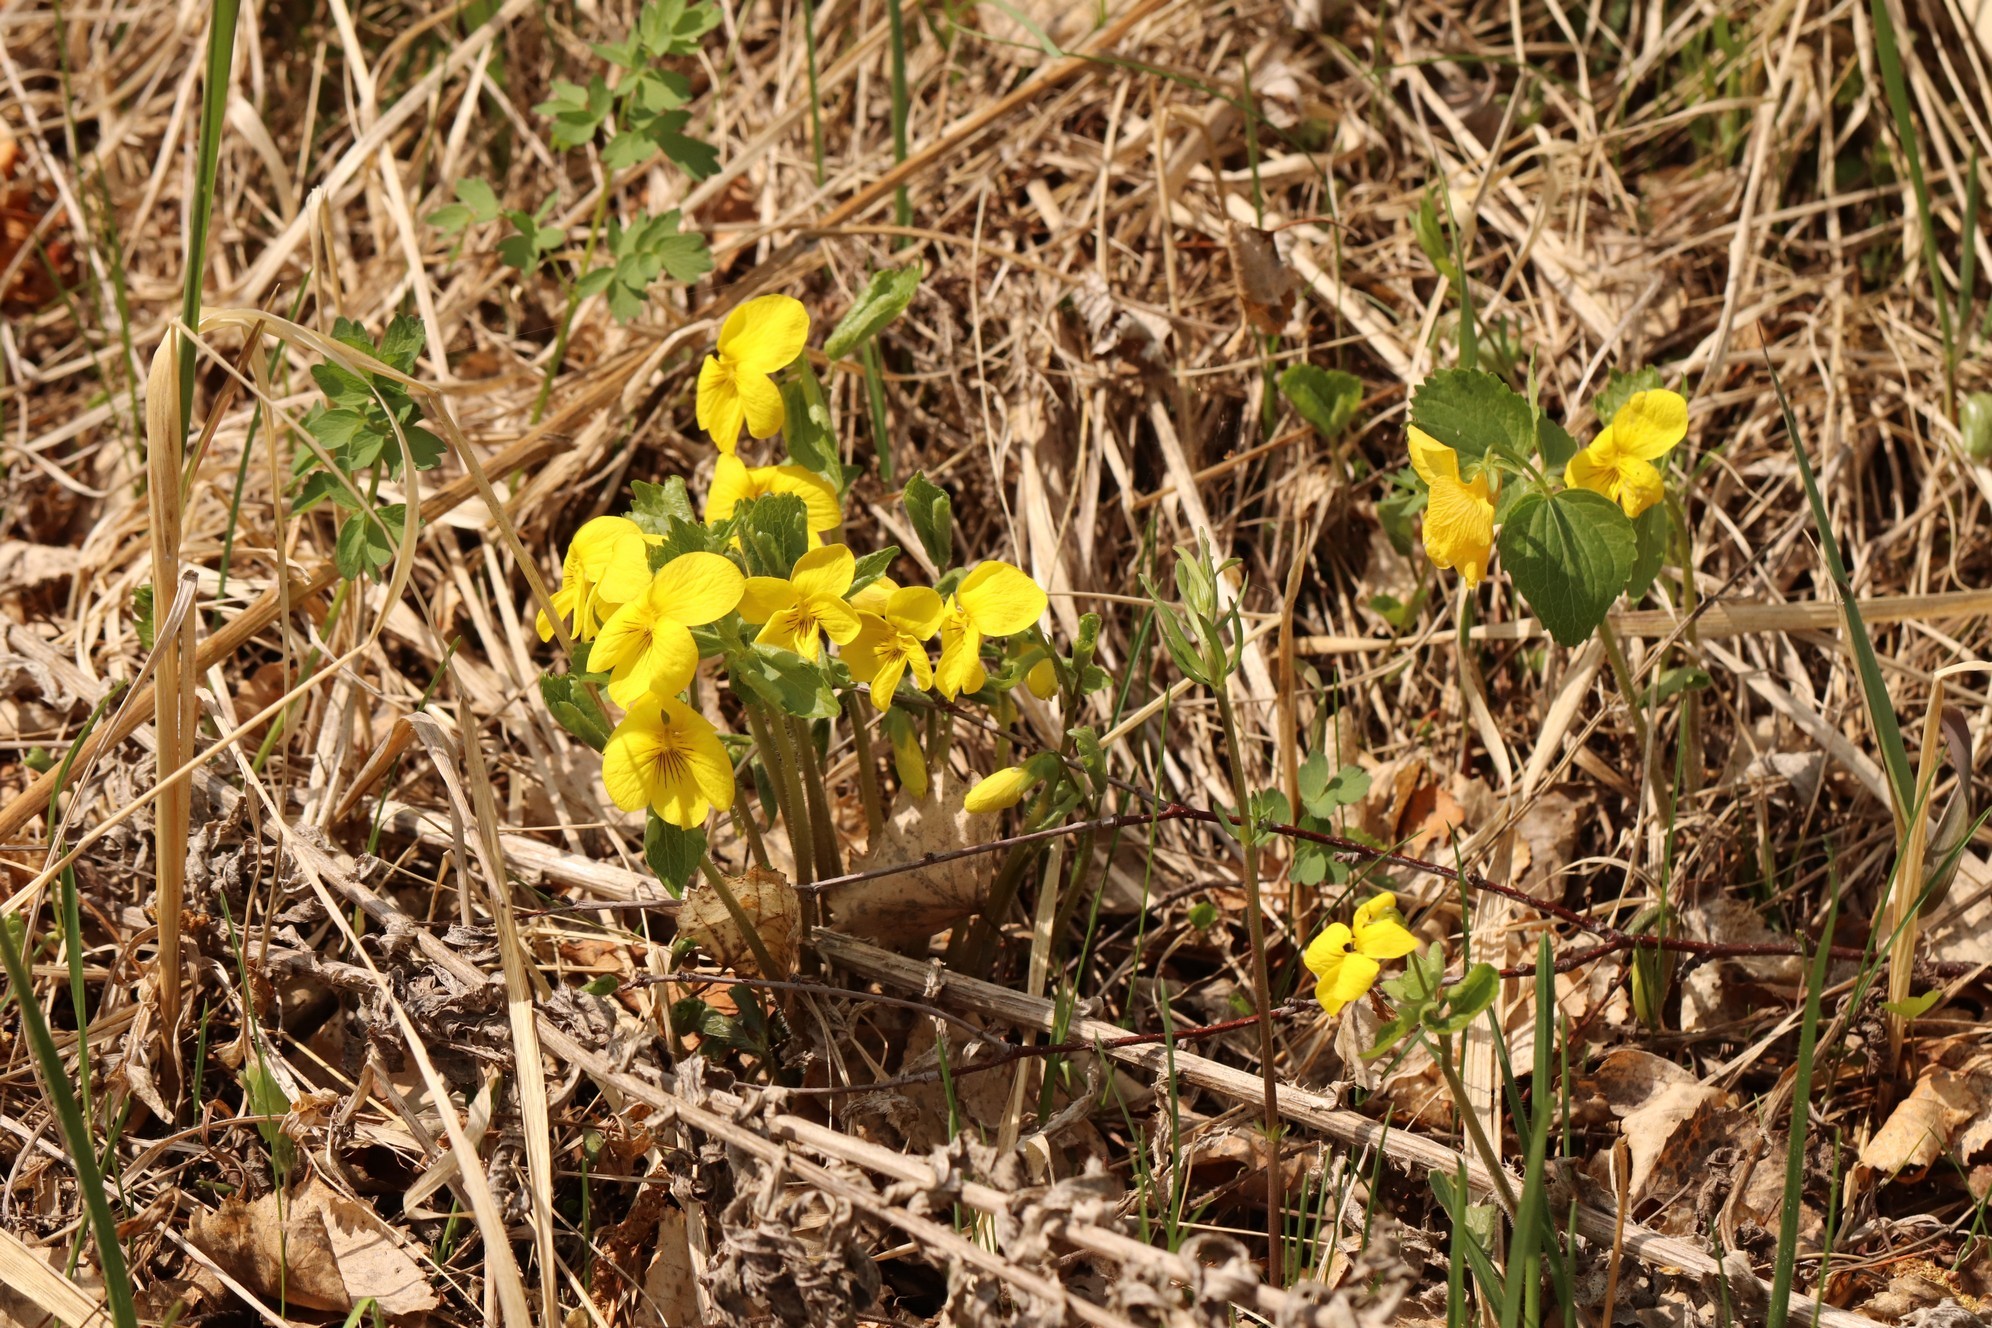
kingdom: Plantae
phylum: Tracheophyta
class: Magnoliopsida
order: Malpighiales
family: Violaceae
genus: Viola
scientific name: Viola uniflora
